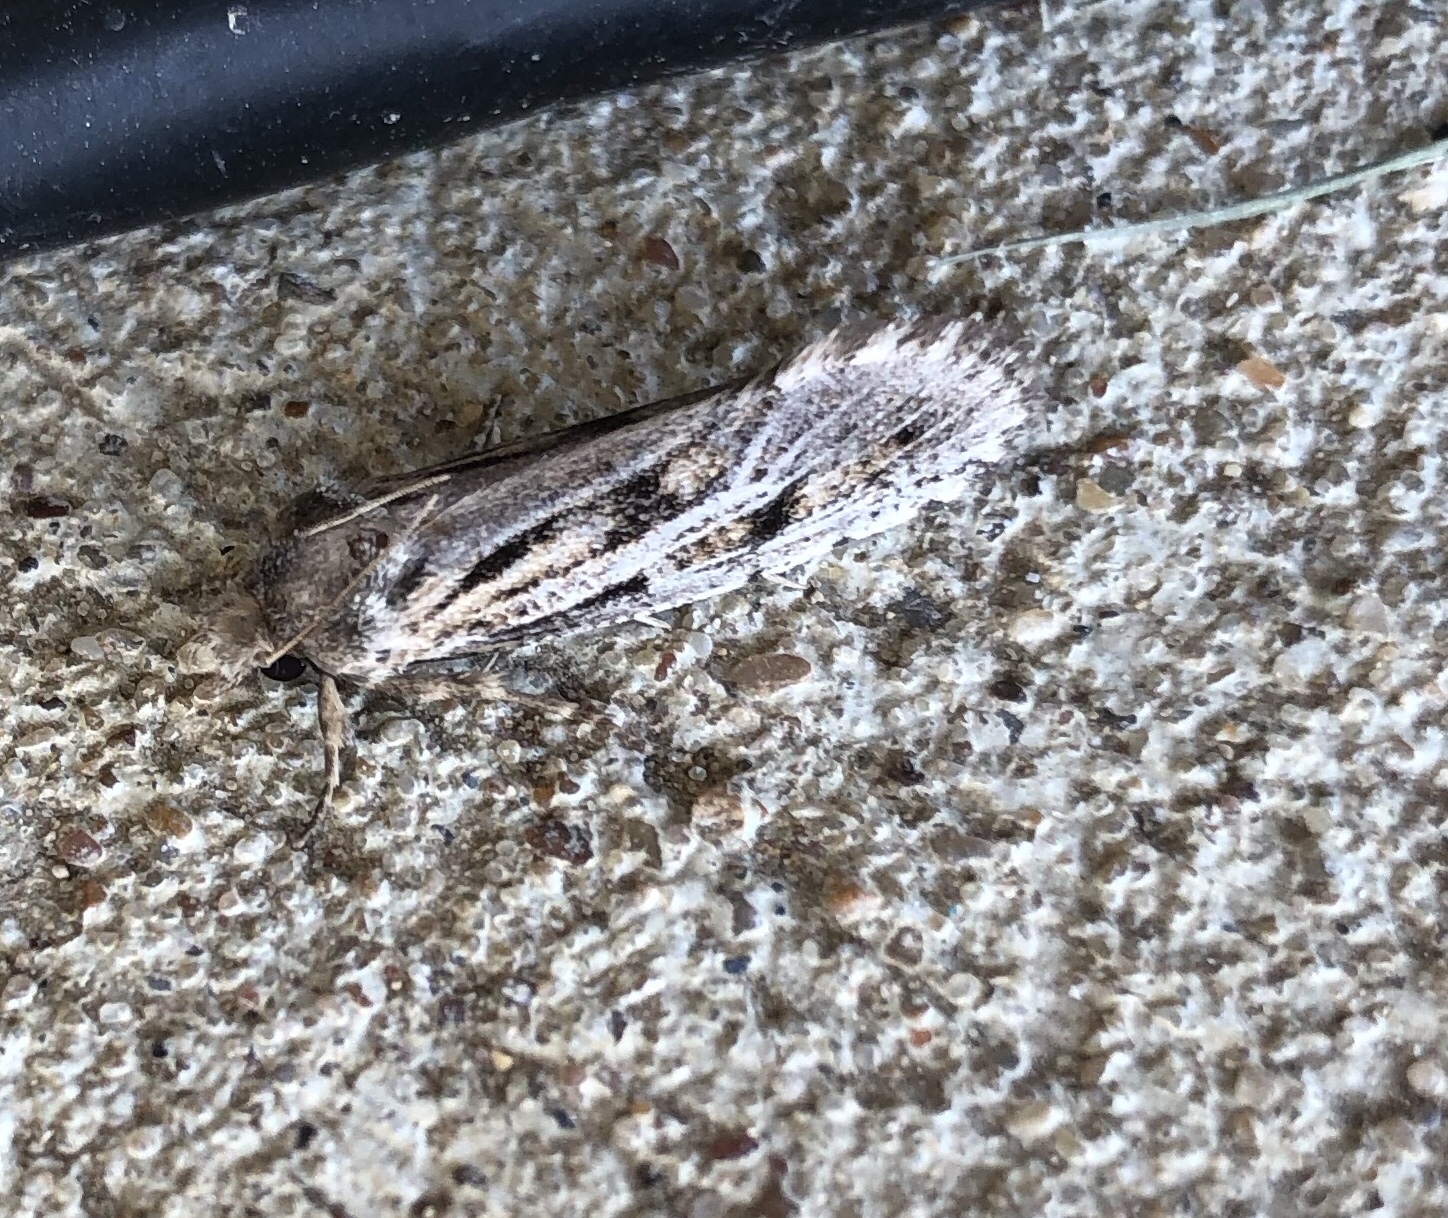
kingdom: Animalia
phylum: Arthropoda
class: Insecta
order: Lepidoptera
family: Tineidae
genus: Acrolophus
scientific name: Acrolophus popeanella
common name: Clemens' grass tubeworm moth
